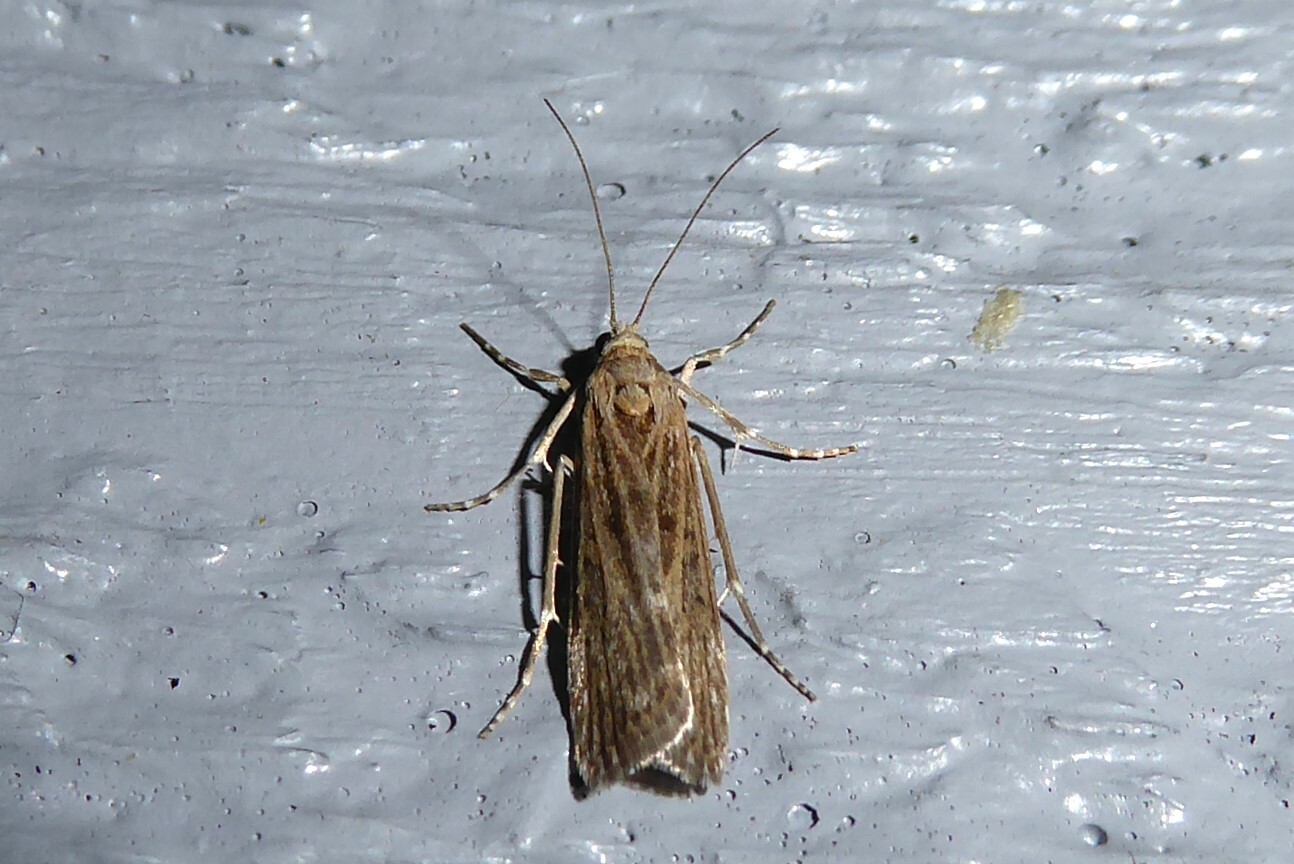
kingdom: Animalia
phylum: Arthropoda
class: Insecta
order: Lepidoptera
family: Crambidae
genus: Eudonia
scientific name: Eudonia atmogramma
